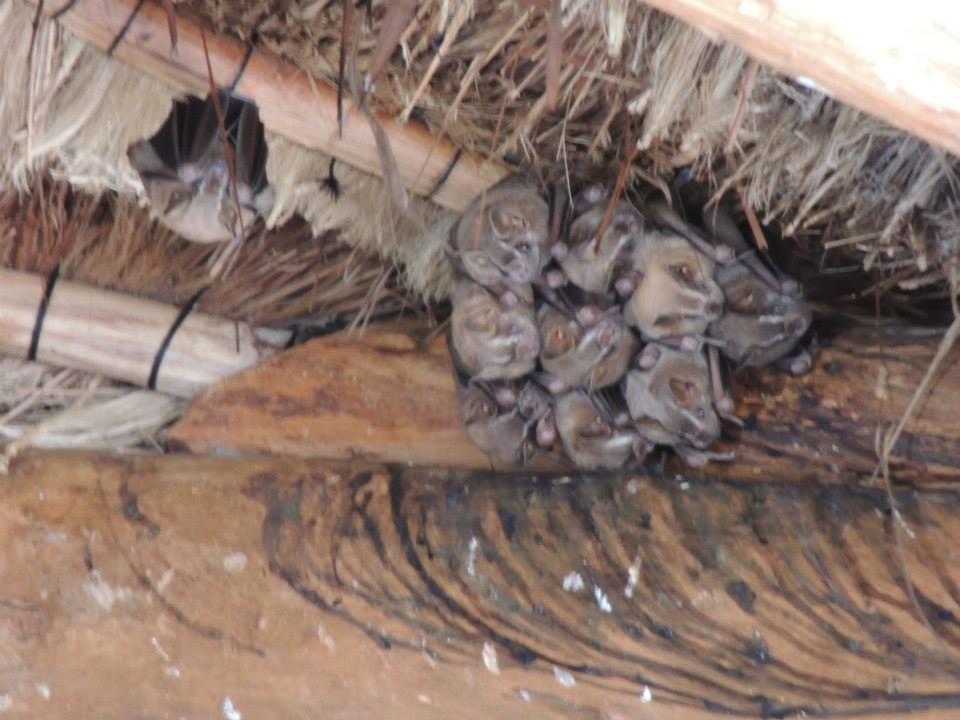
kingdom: Animalia
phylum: Chordata
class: Mammalia
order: Chiroptera
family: Phyllostomidae
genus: Artibeus
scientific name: Artibeus lituratus
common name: Great fruit-eating bat
